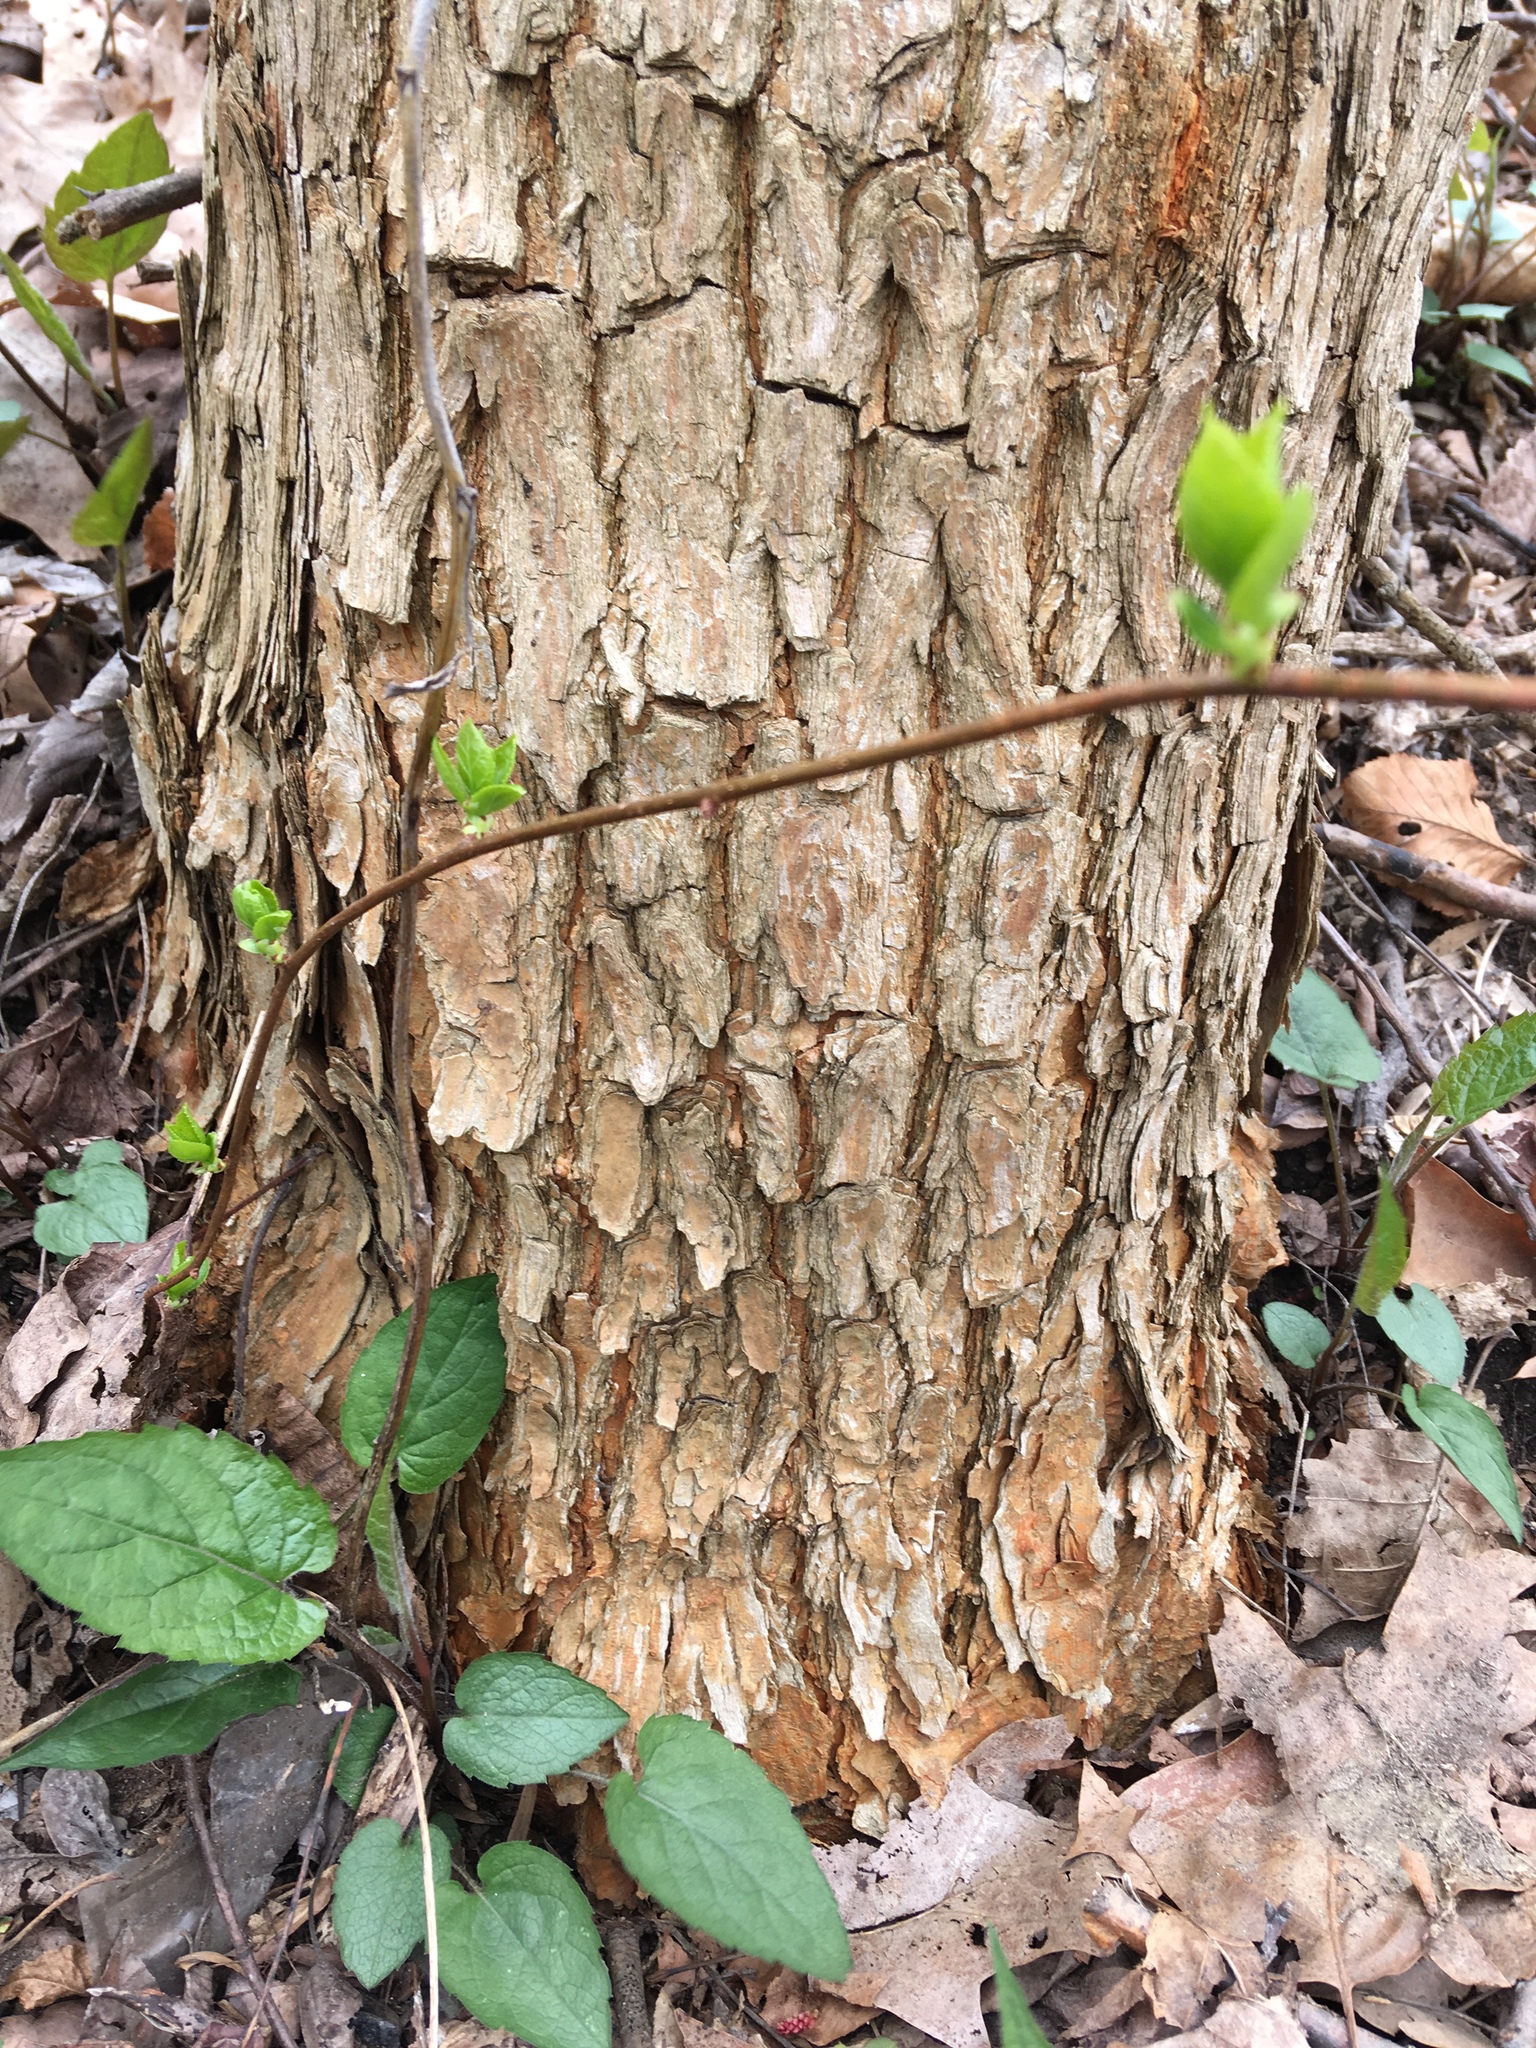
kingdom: Plantae
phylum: Tracheophyta
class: Magnoliopsida
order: Rosales
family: Moraceae
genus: Morus
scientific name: Morus alba
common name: White mulberry
